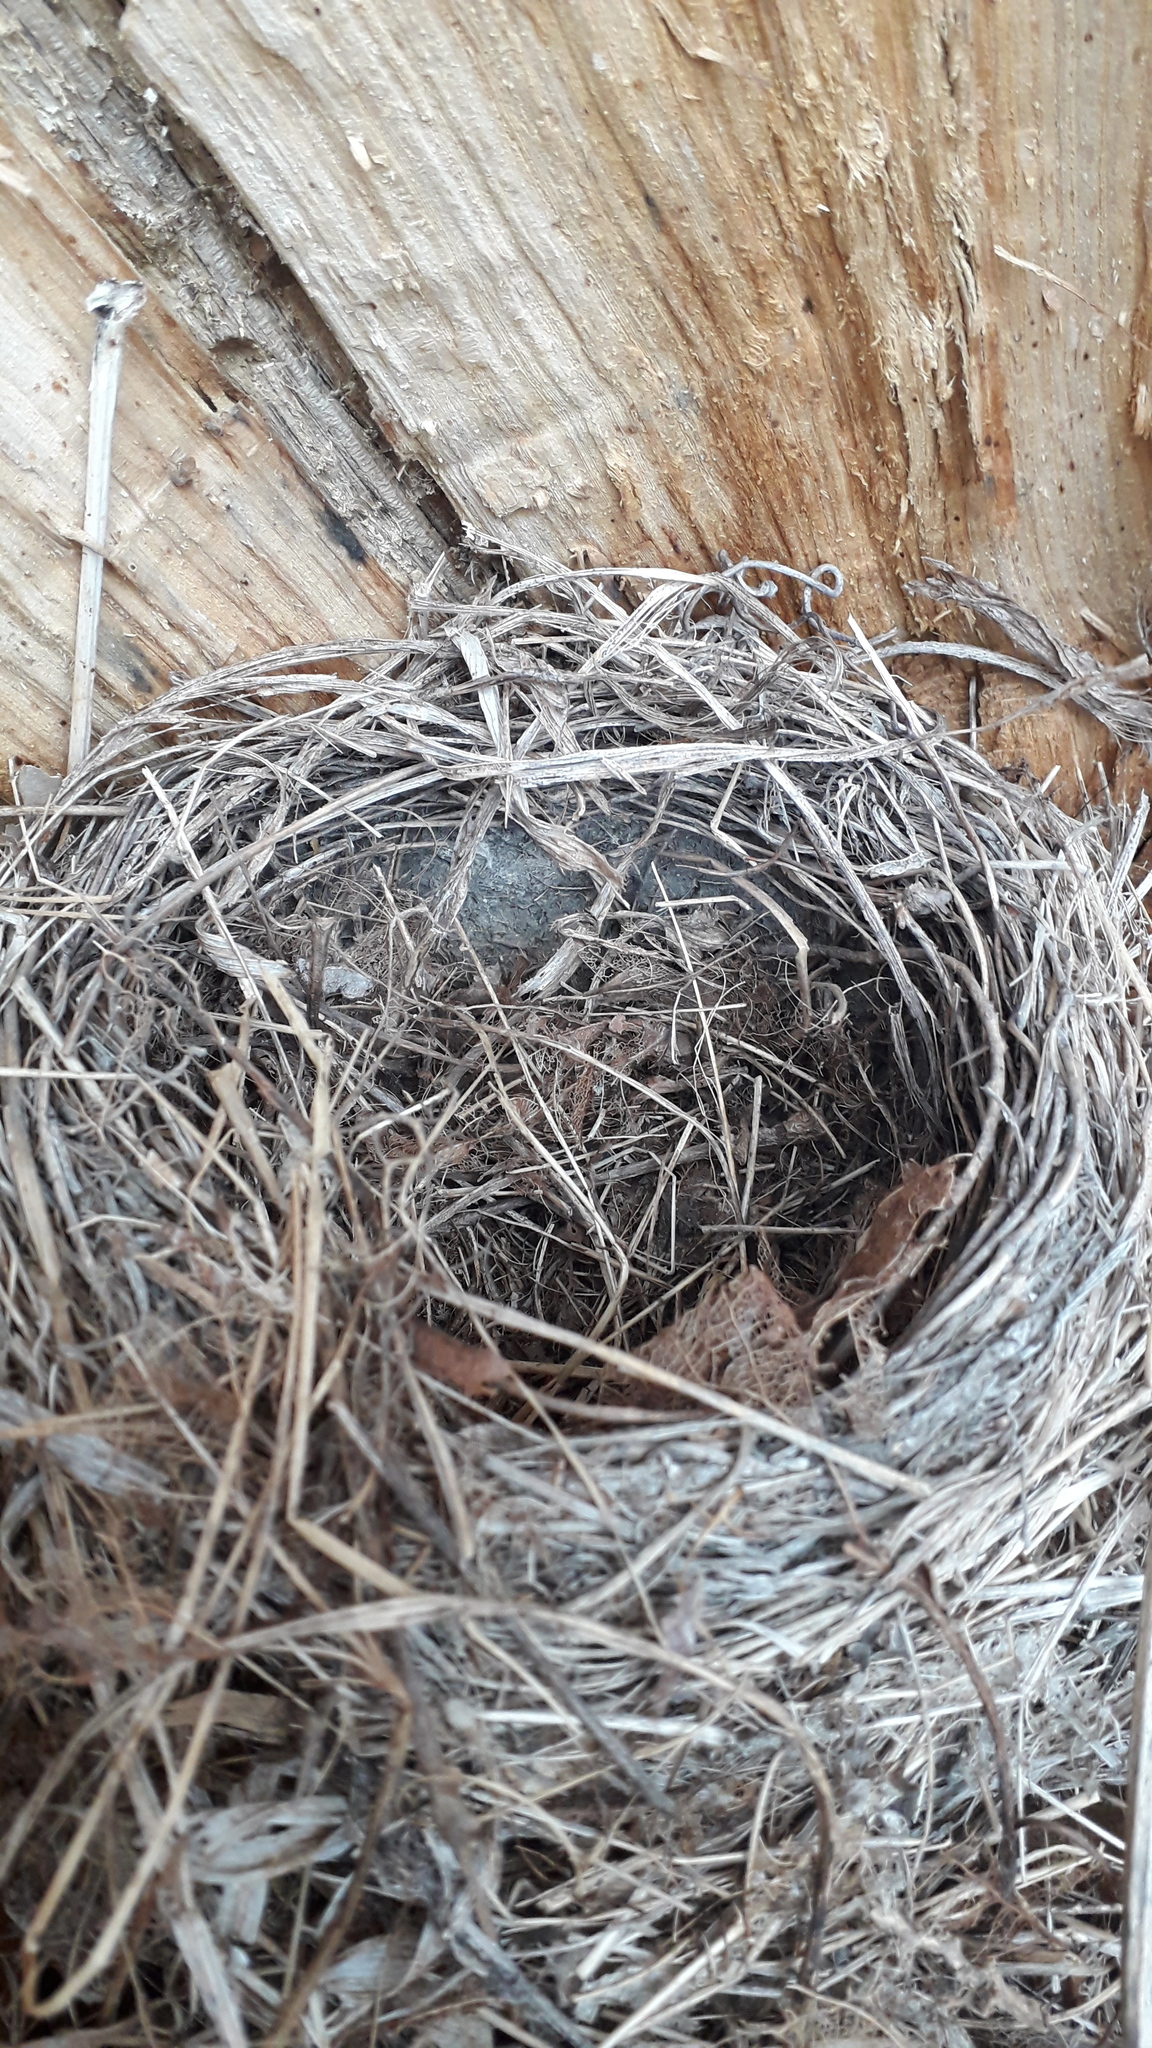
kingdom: Animalia
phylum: Chordata
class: Aves
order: Passeriformes
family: Turdidae
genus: Turdus
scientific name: Turdus philomelos
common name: Song thrush
